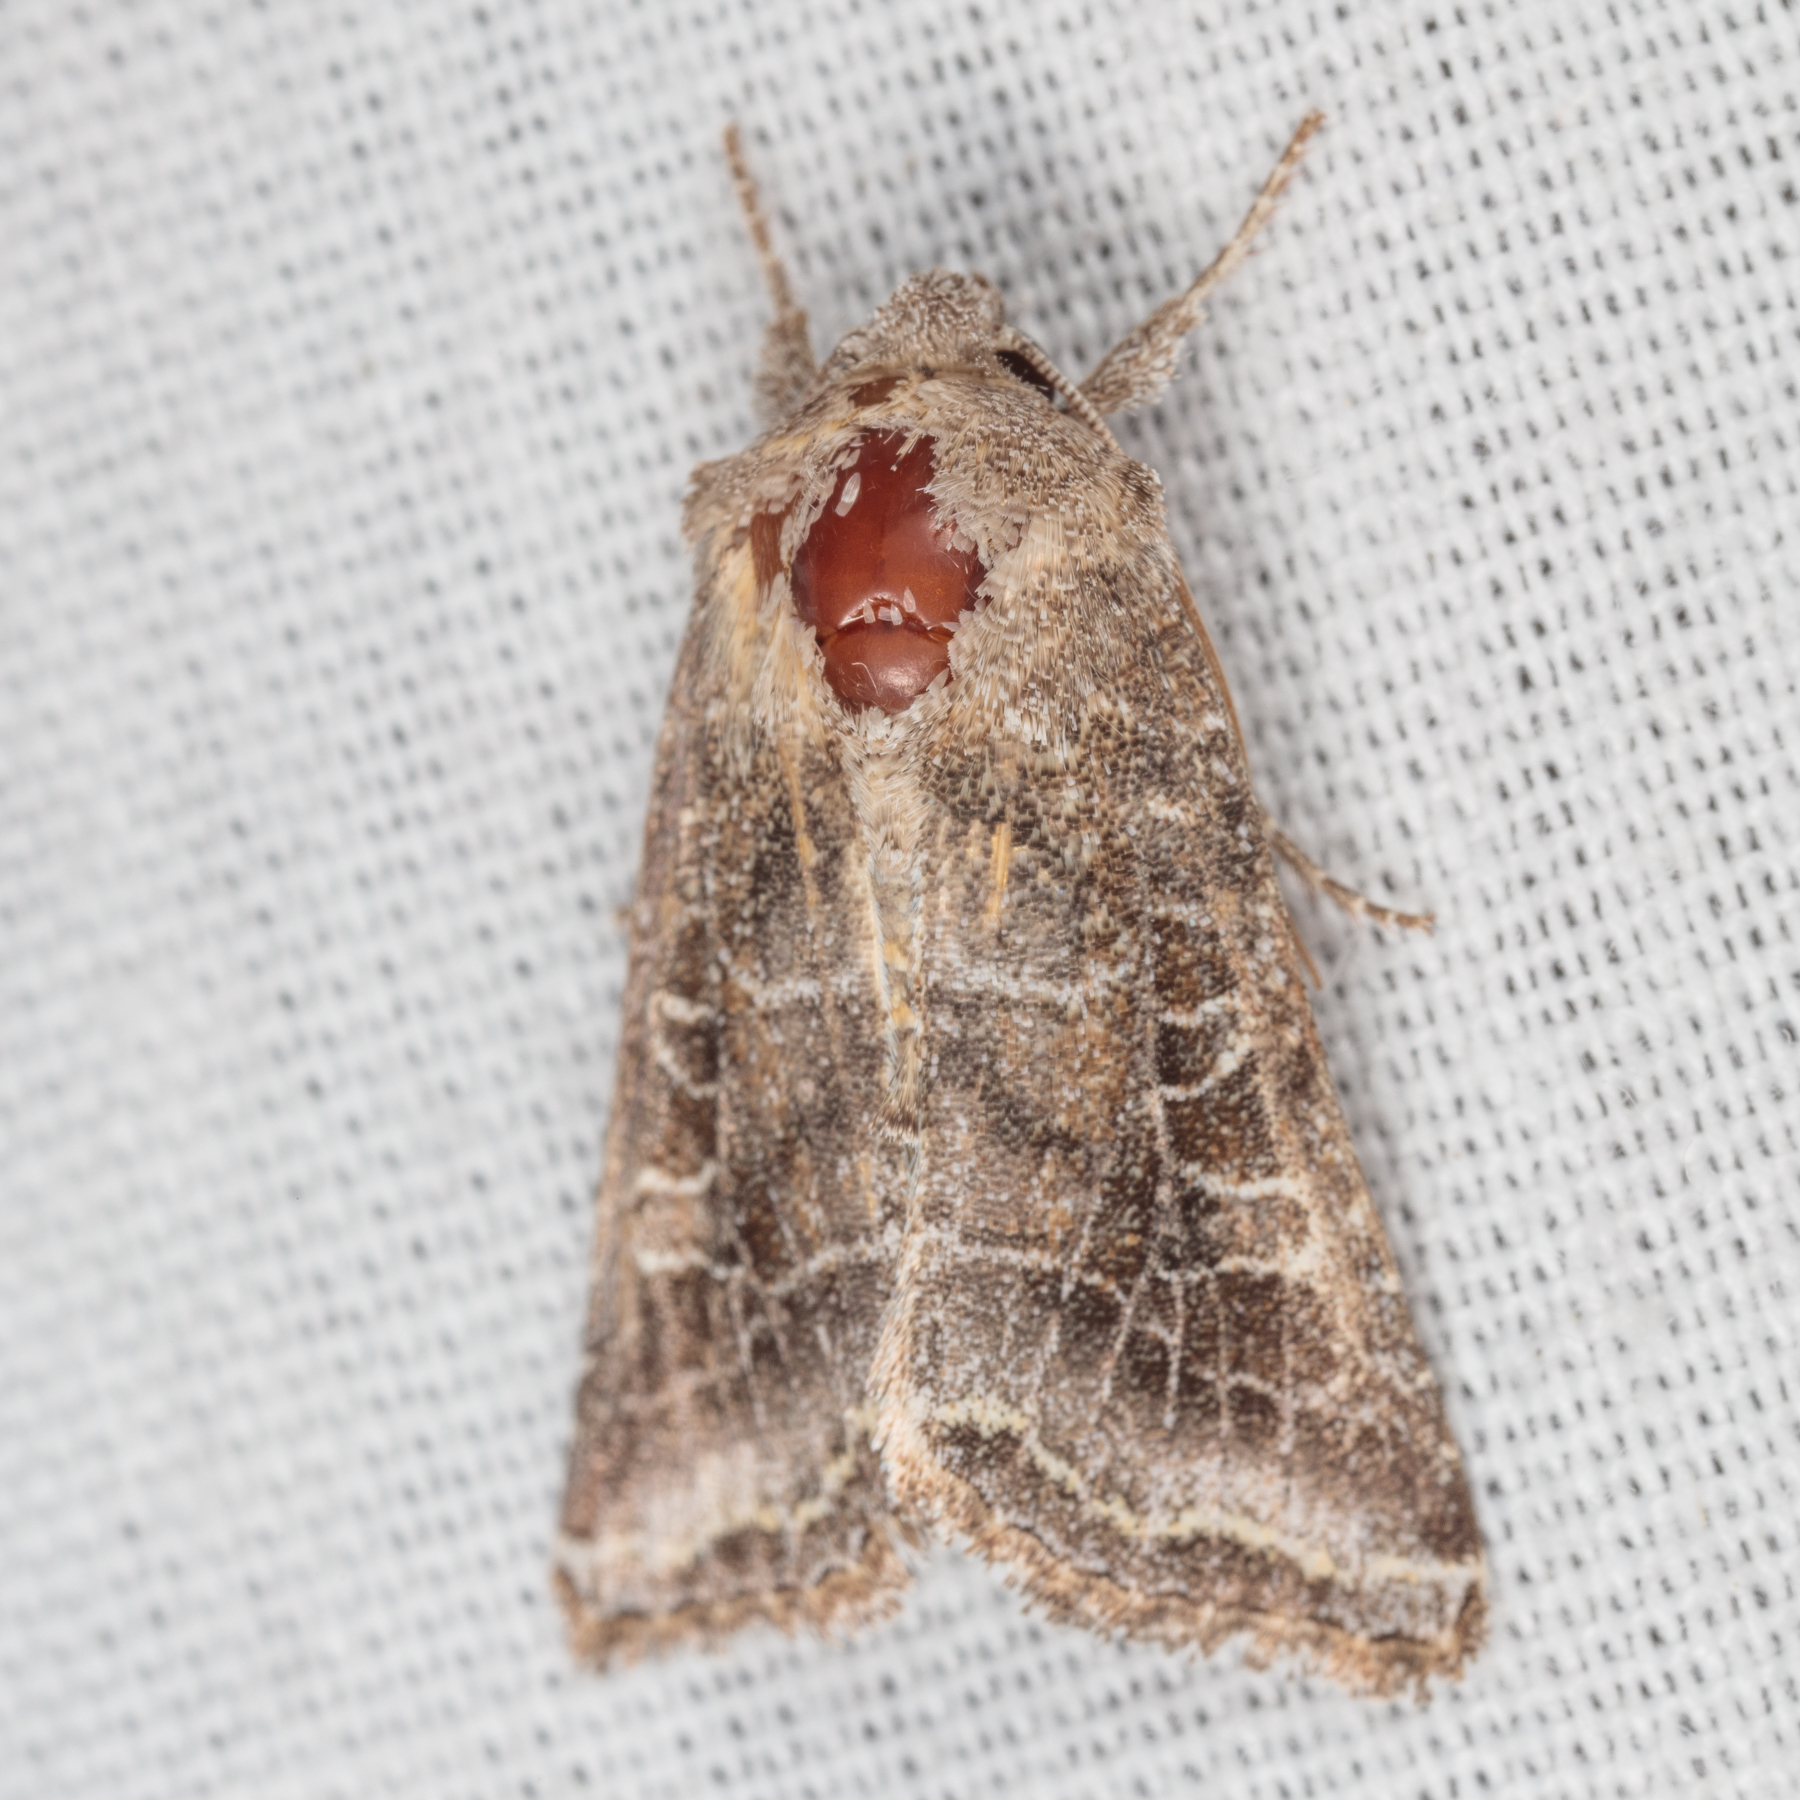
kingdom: Animalia
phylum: Arthropoda
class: Insecta
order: Lepidoptera
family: Noctuidae
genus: Lacinipolia
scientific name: Lacinipolia erecta
